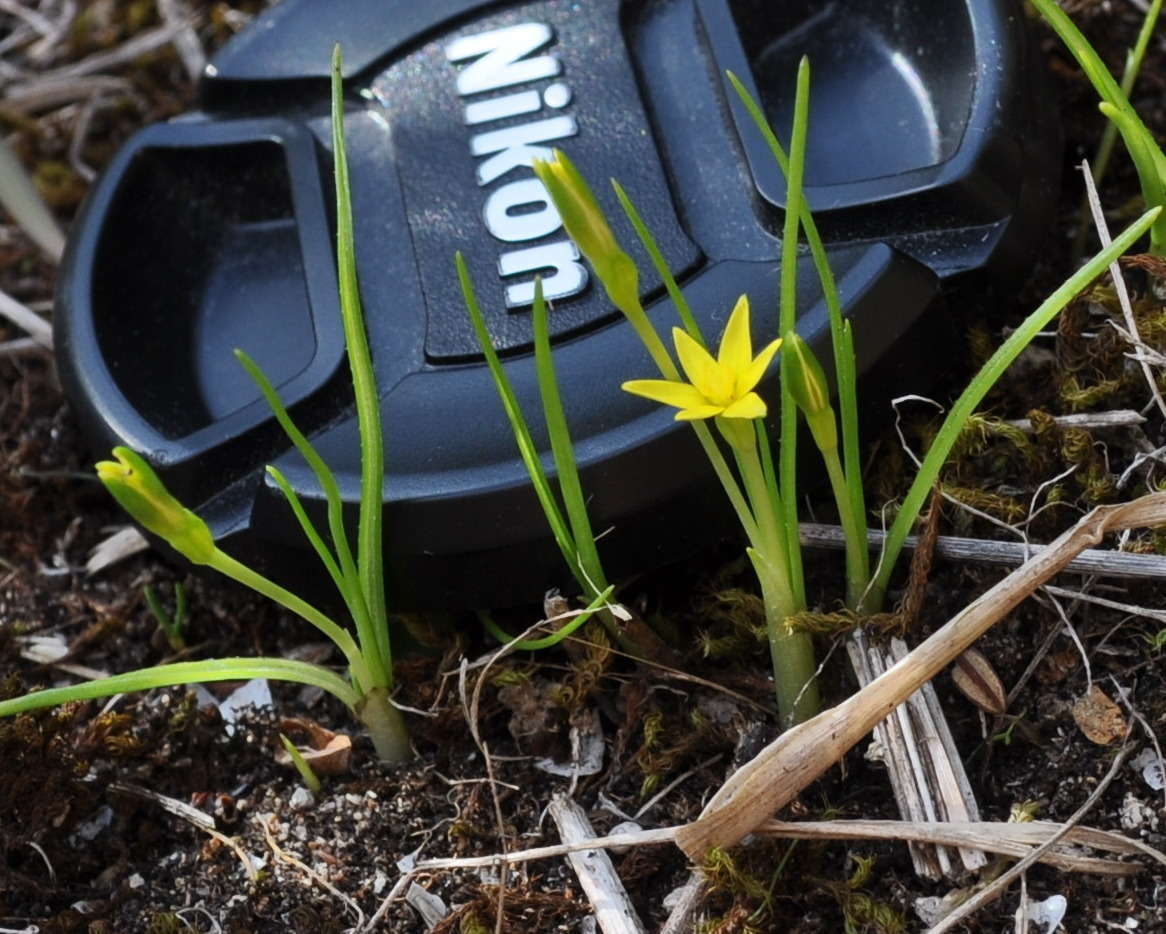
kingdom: Plantae
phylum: Tracheophyta
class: Liliopsida
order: Asparagales
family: Hypoxidaceae
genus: Pauridia
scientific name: Pauridia glabella
